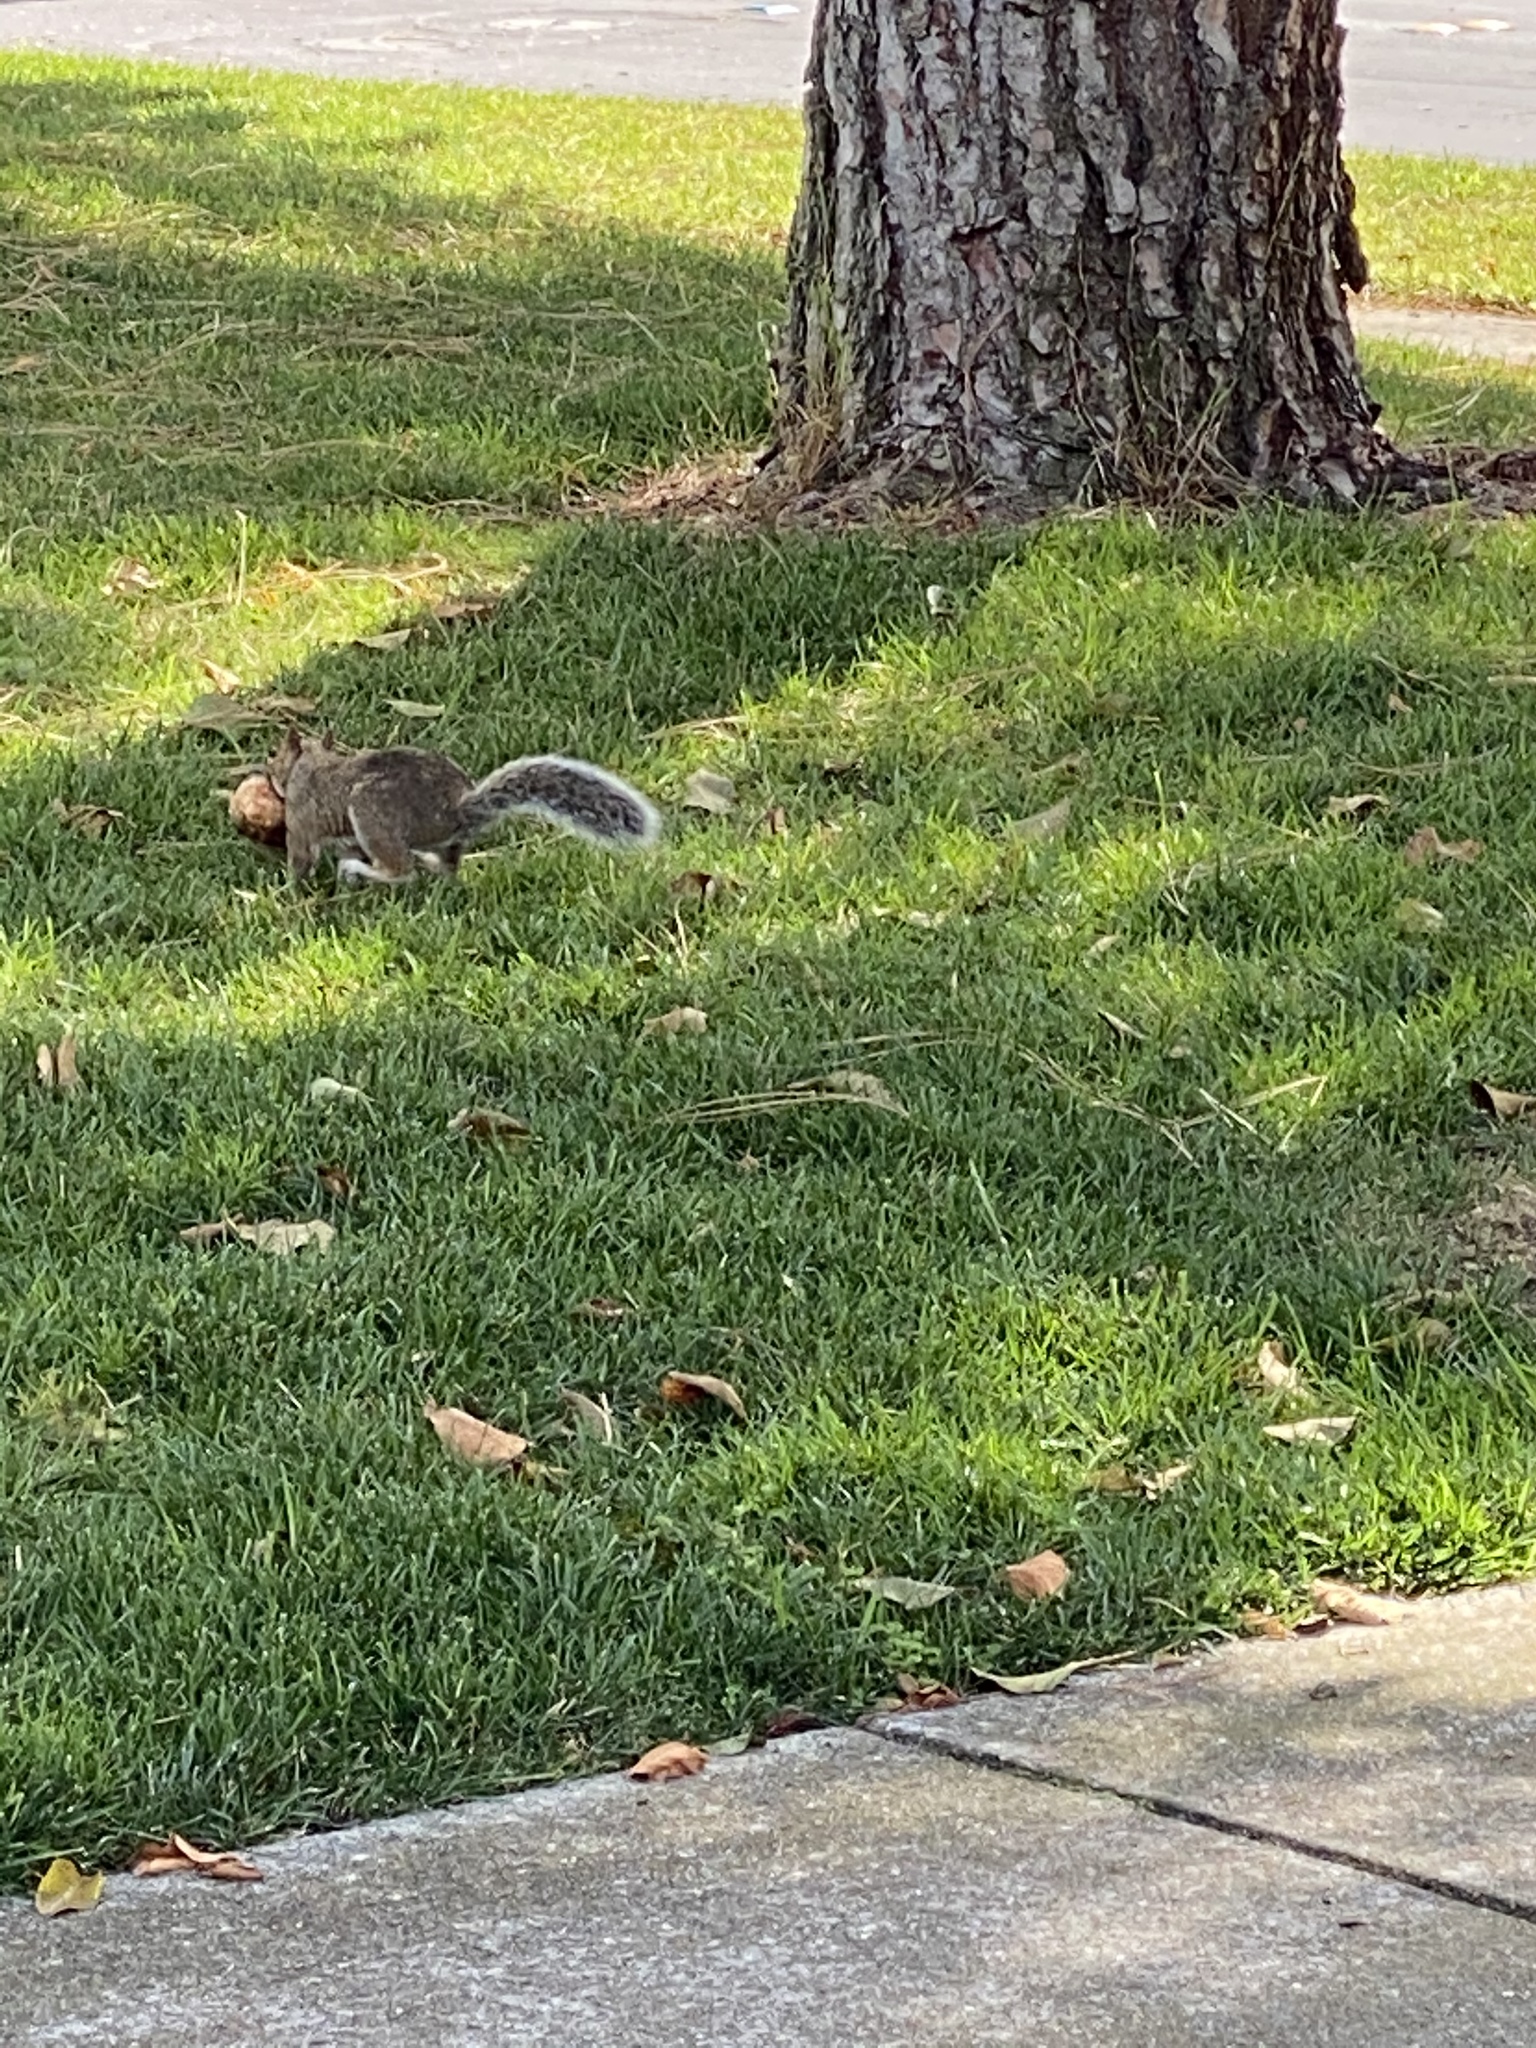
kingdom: Animalia
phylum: Chordata
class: Mammalia
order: Rodentia
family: Sciuridae
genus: Sciurus
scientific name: Sciurus carolinensis
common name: Eastern gray squirrel
